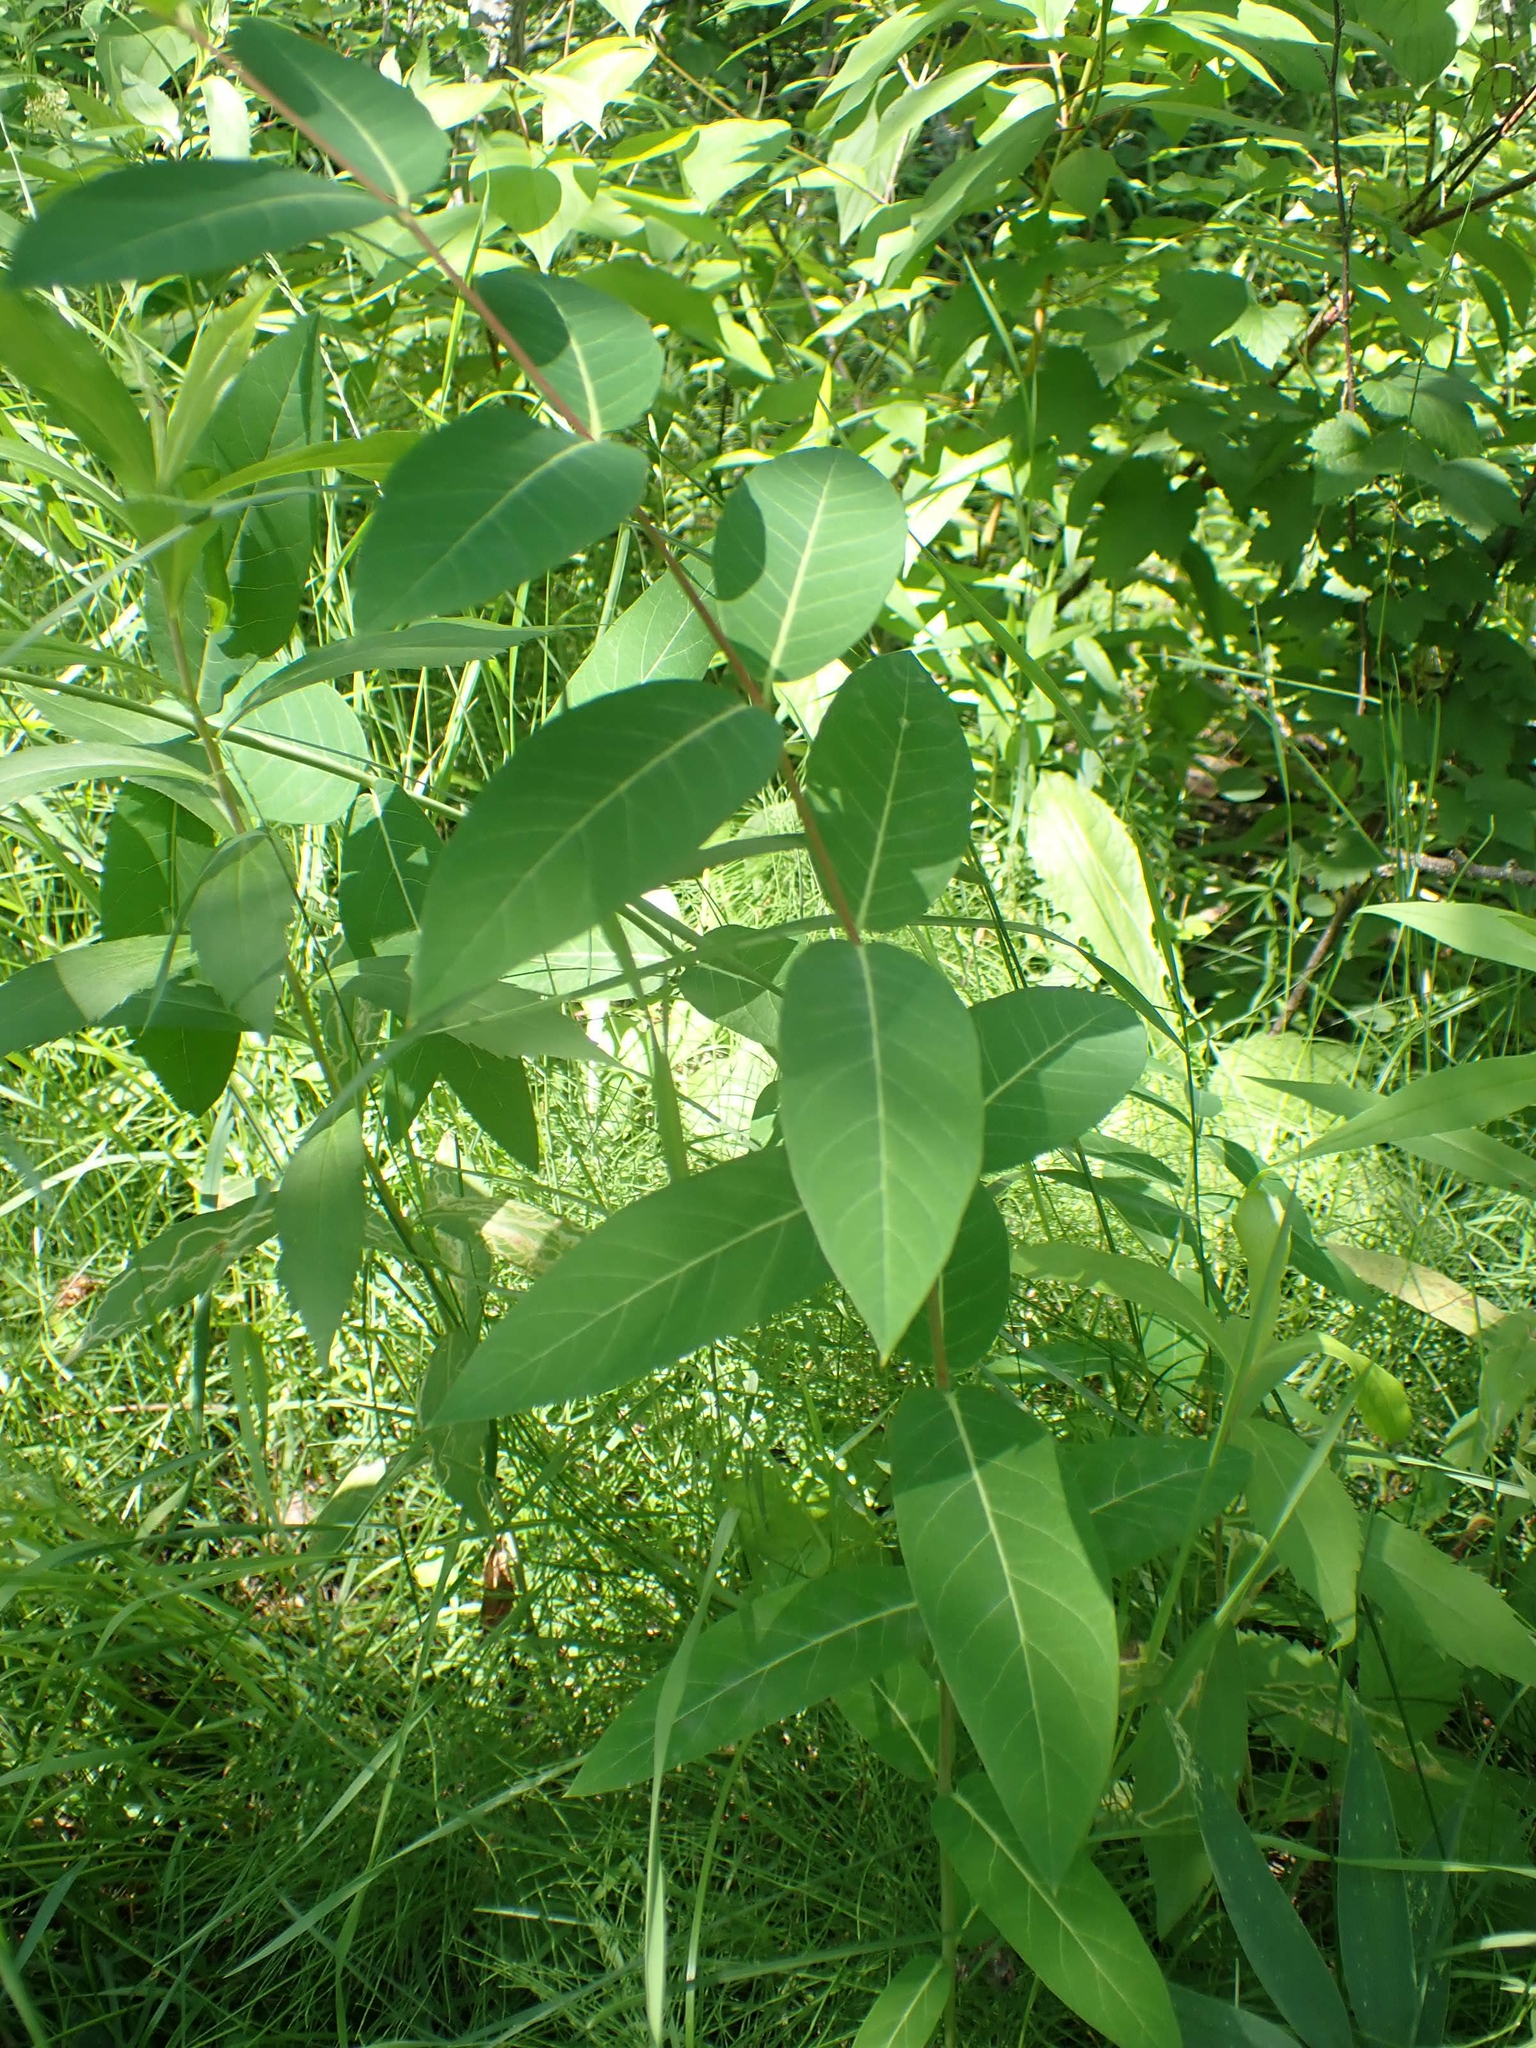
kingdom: Plantae
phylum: Tracheophyta
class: Magnoliopsida
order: Gentianales
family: Apocynaceae
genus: Apocynum
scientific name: Apocynum cannabinum
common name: Hemp dogbane
